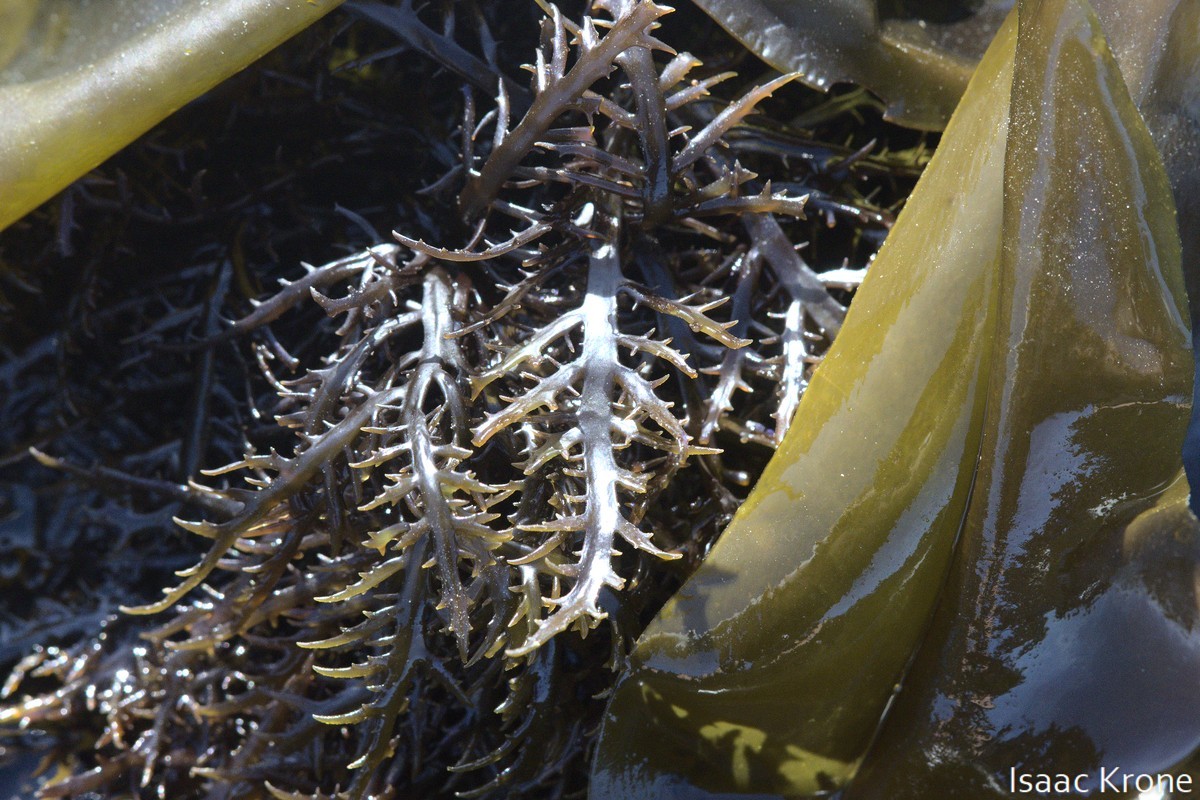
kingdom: Plantae
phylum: Rhodophyta
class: Florideophyceae
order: Gigartinales
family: Gigartinaceae
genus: Chondracanthus
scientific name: Chondracanthus canaliculatus
